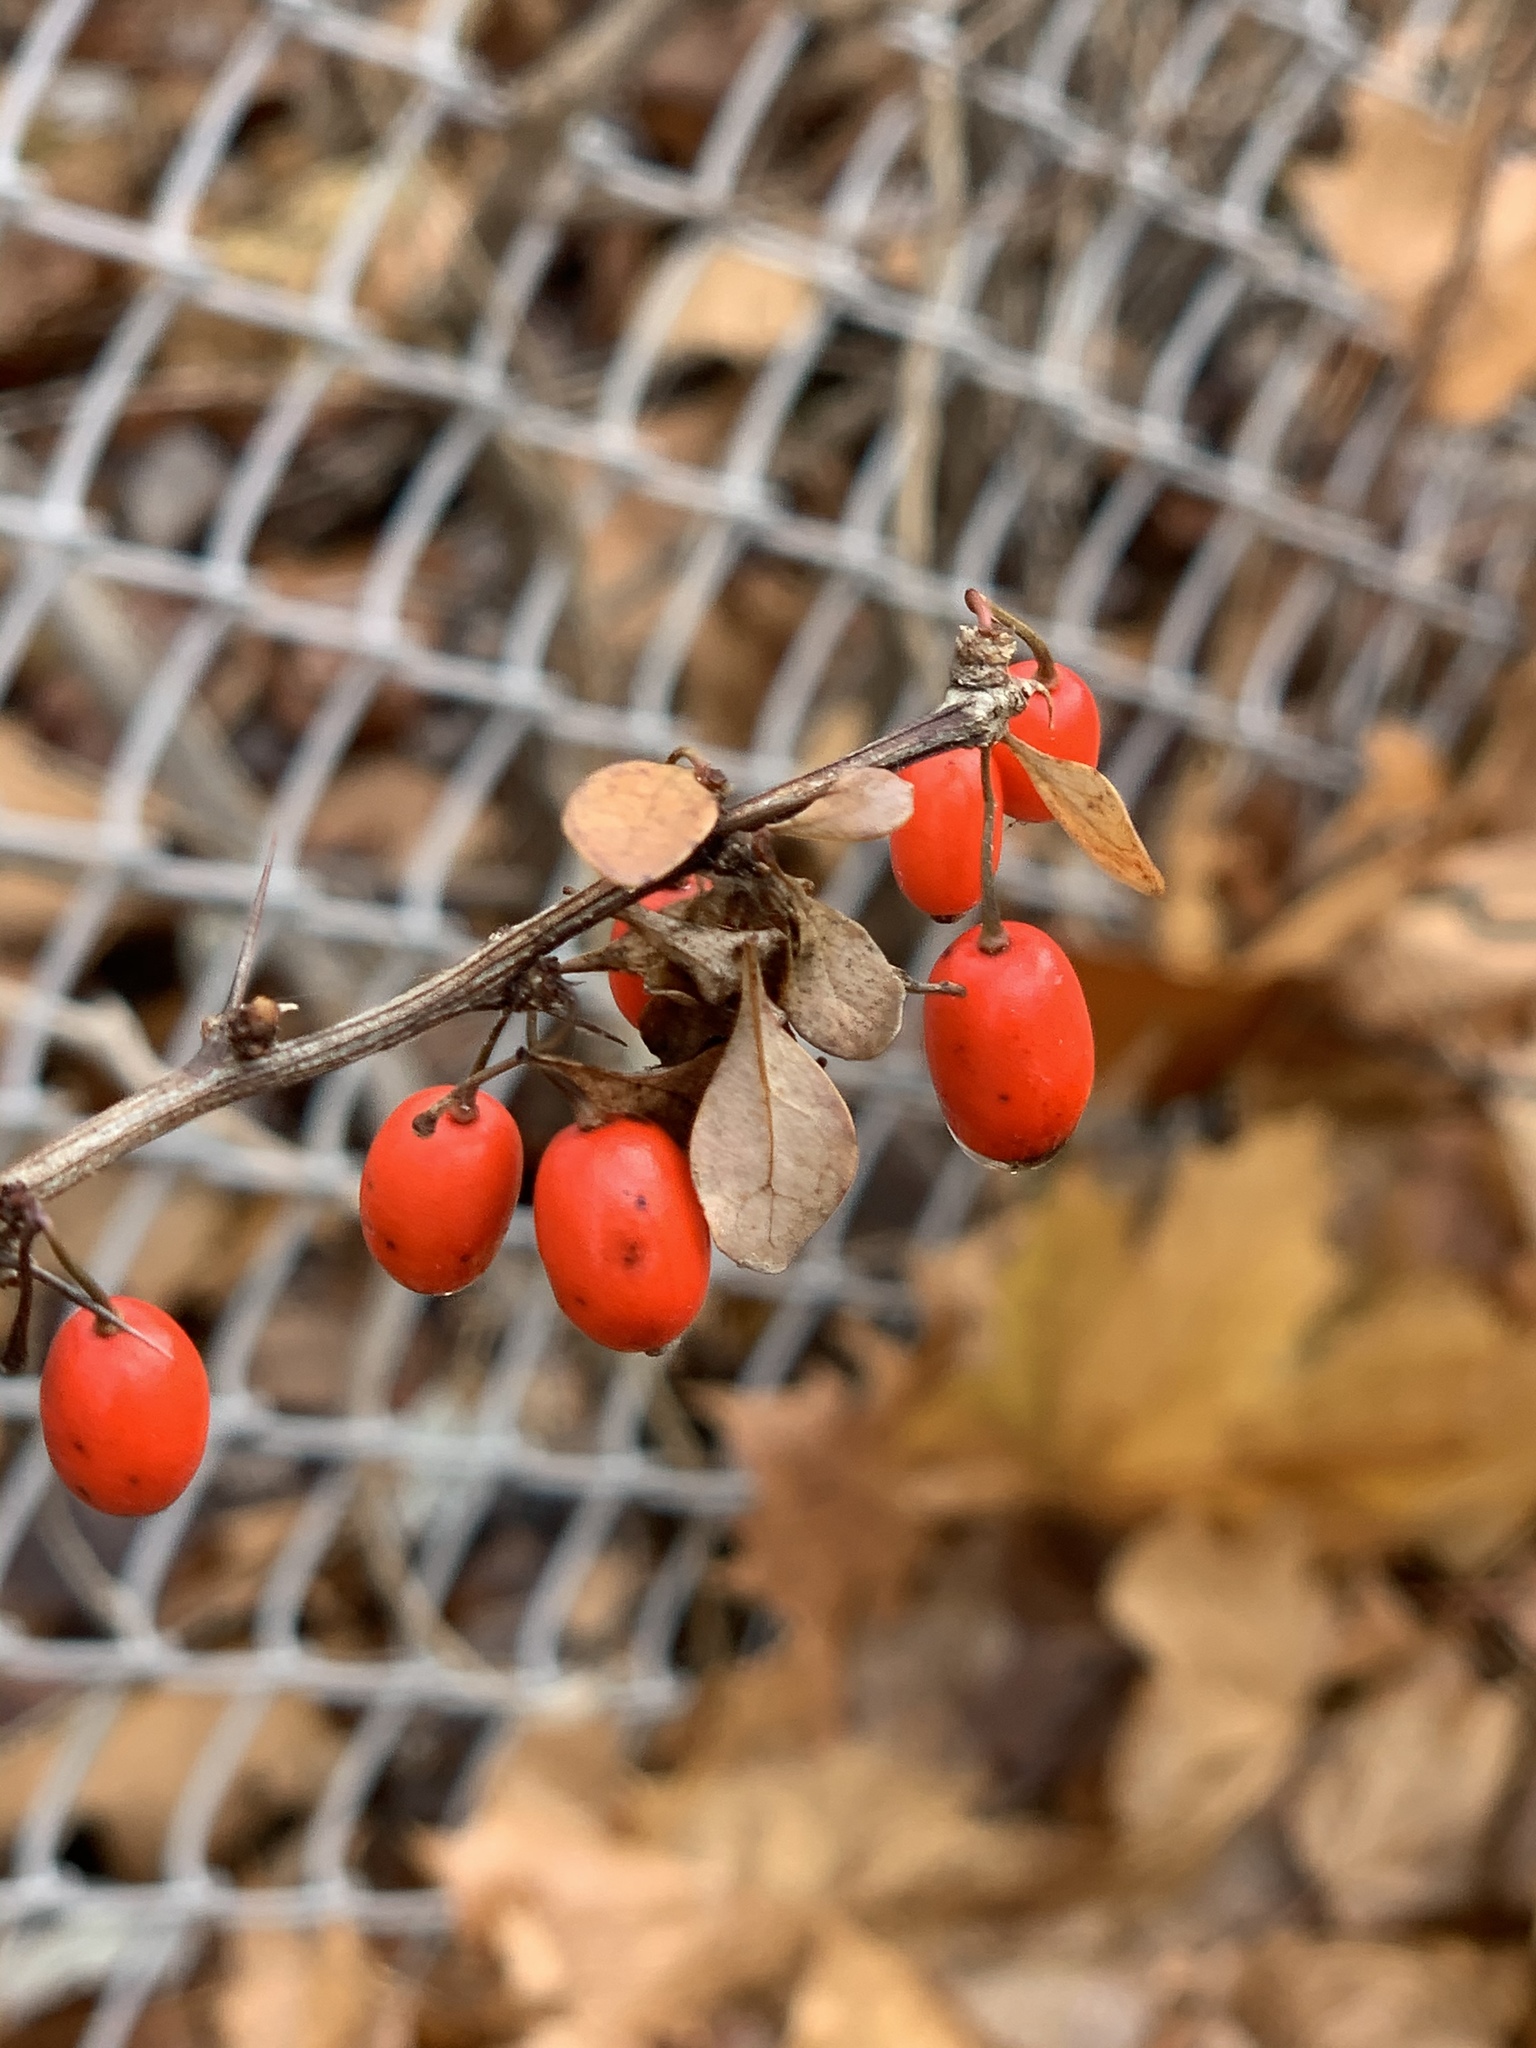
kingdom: Plantae
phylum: Tracheophyta
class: Magnoliopsida
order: Ranunculales
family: Berberidaceae
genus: Berberis
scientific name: Berberis thunbergii
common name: Japanese barberry
